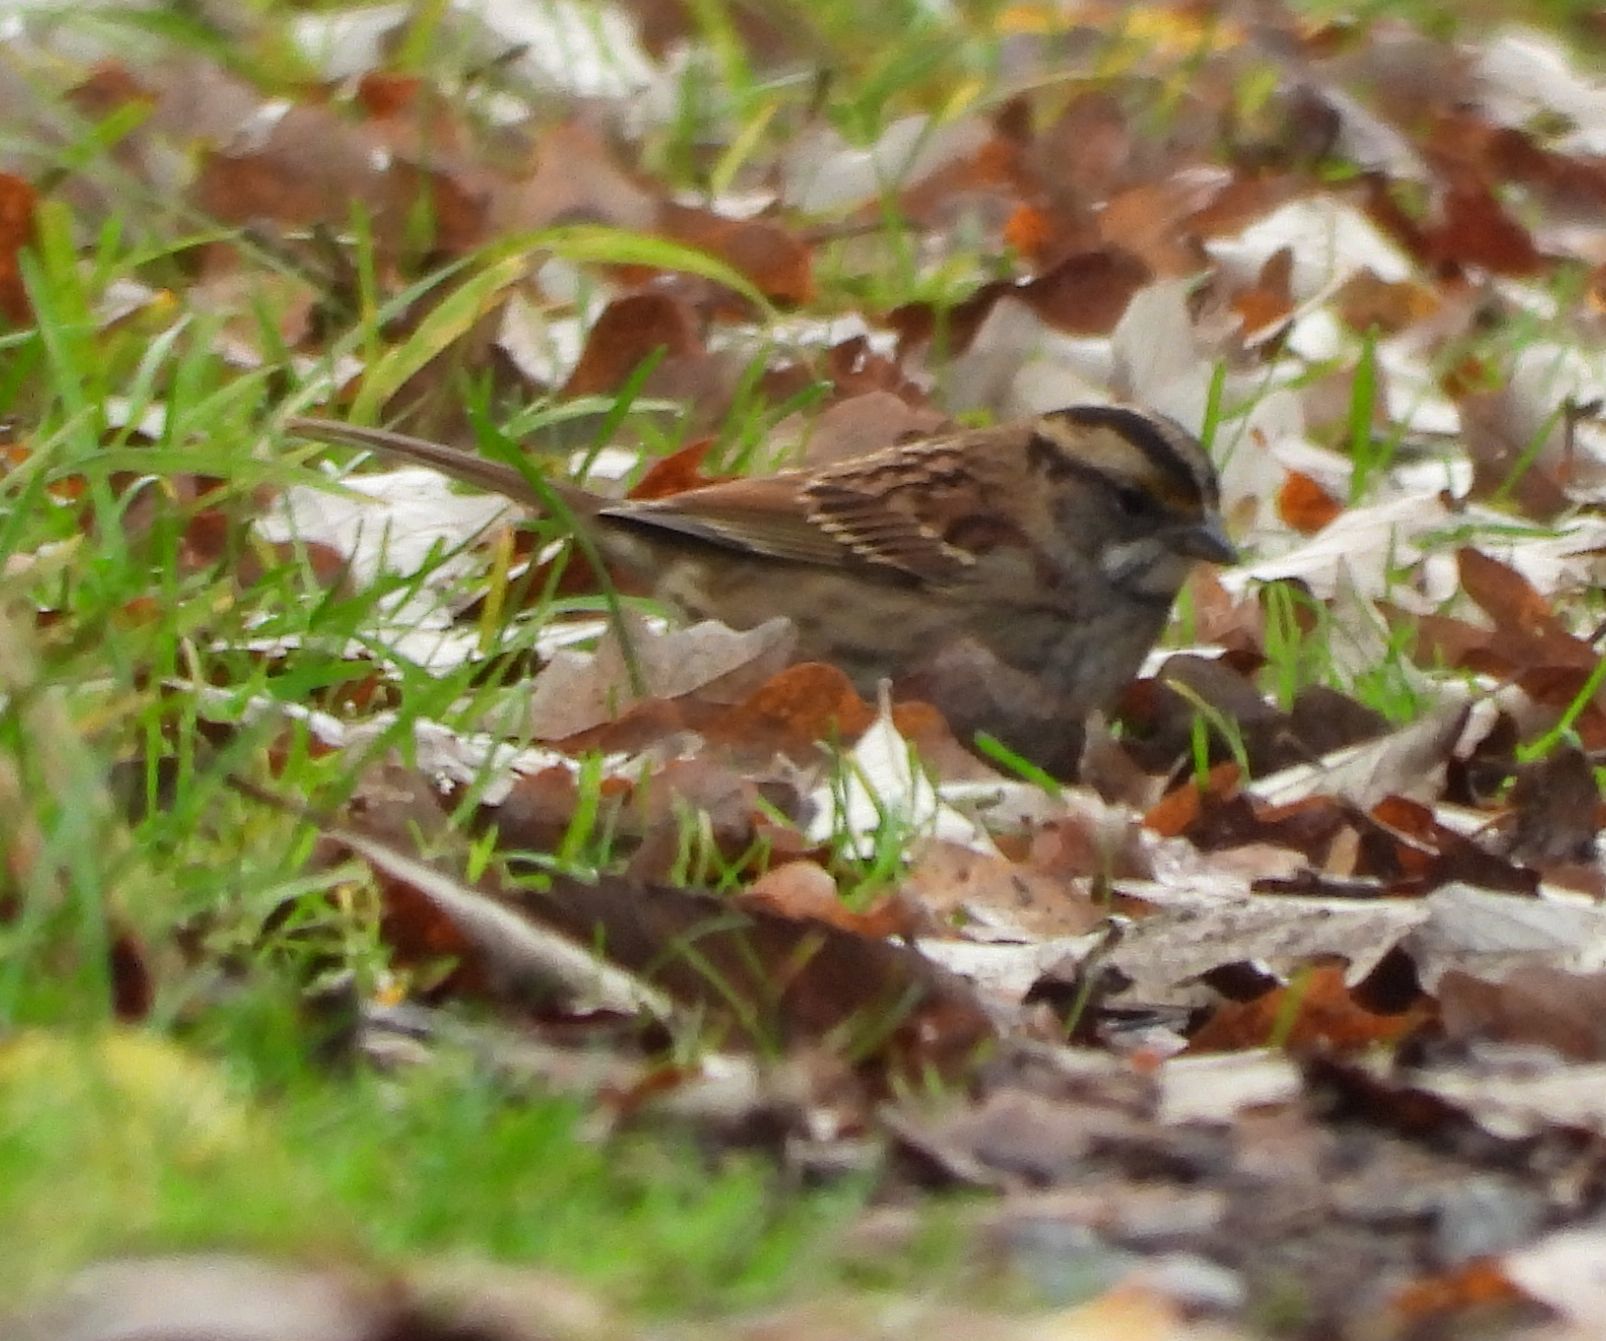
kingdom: Animalia
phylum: Chordata
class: Aves
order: Passeriformes
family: Passerellidae
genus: Zonotrichia
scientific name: Zonotrichia albicollis
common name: White-throated sparrow
